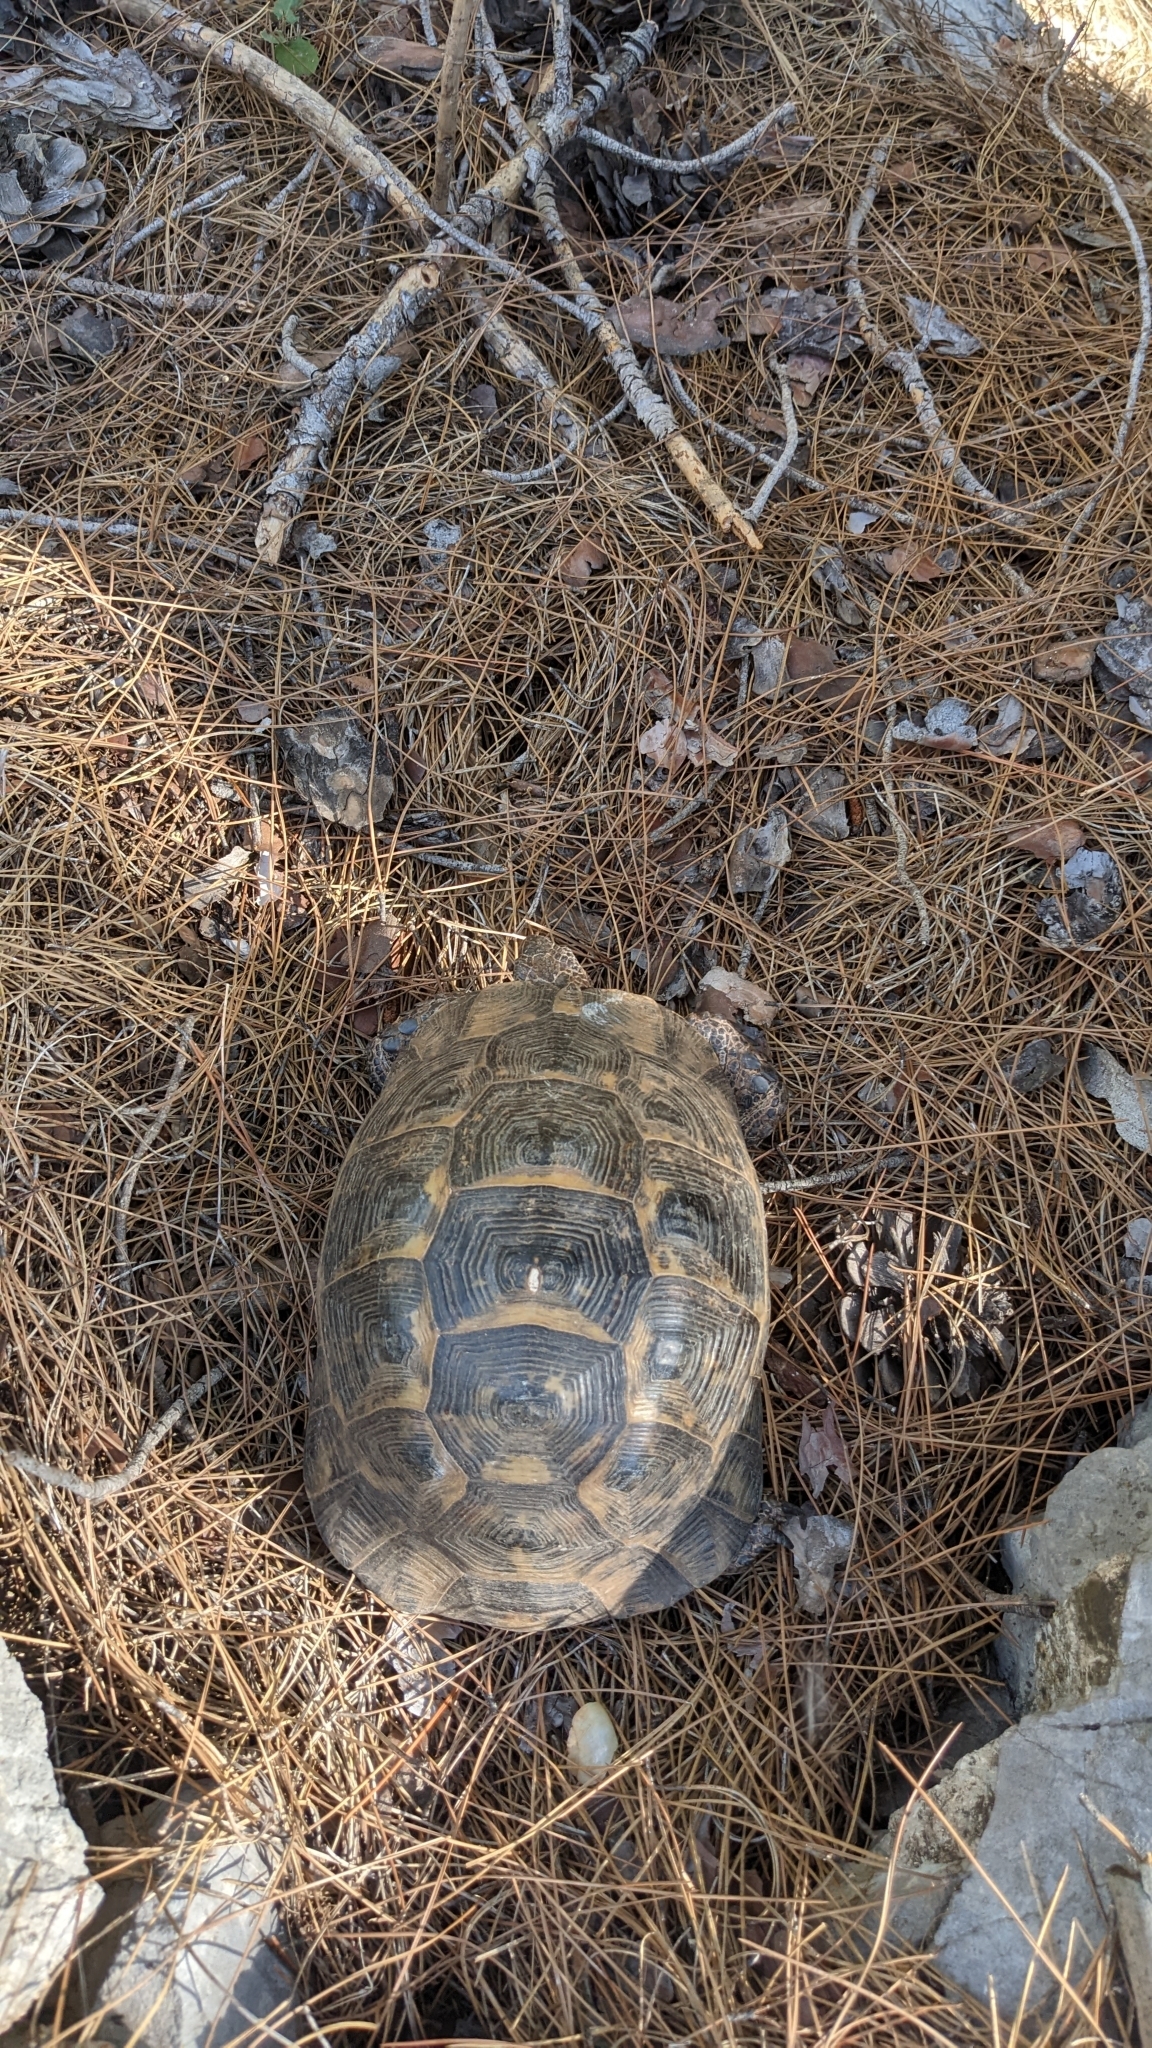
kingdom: Animalia
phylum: Chordata
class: Testudines
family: Testudinidae
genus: Testudo
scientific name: Testudo graeca
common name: Common tortoise
